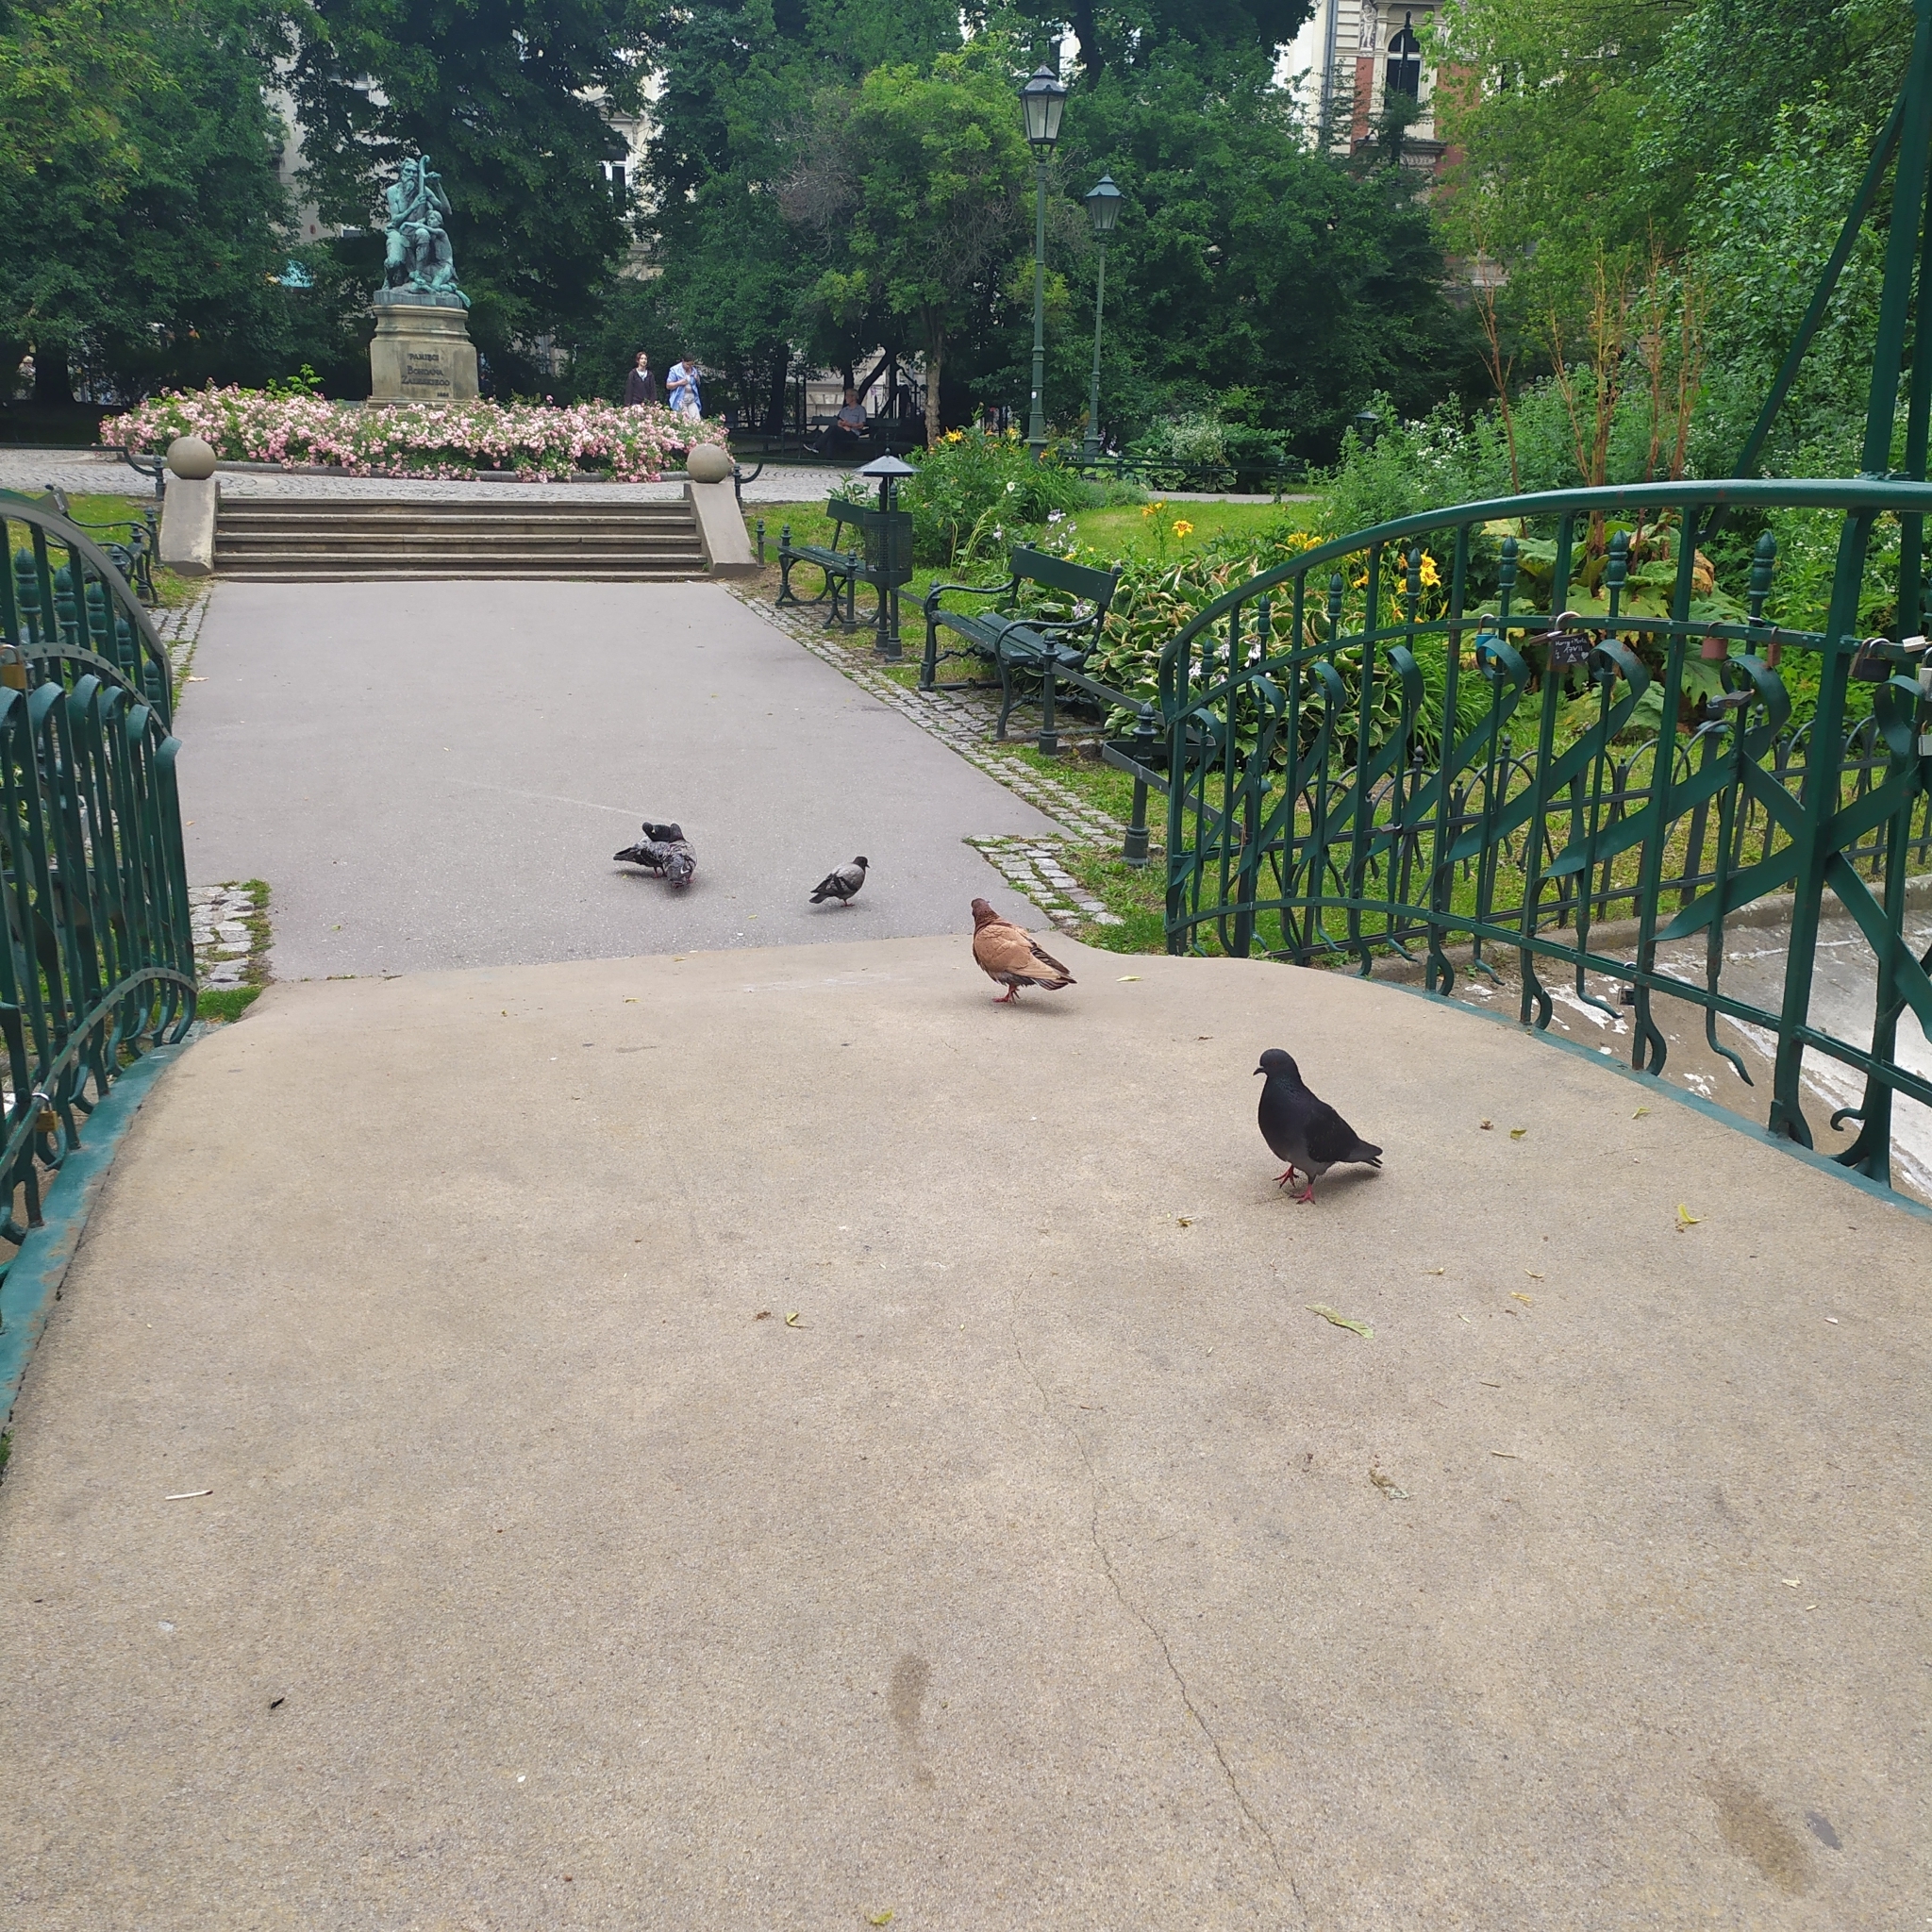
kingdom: Animalia
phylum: Chordata
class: Aves
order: Columbiformes
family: Columbidae
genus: Columba
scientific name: Columba livia
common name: Rock pigeon
